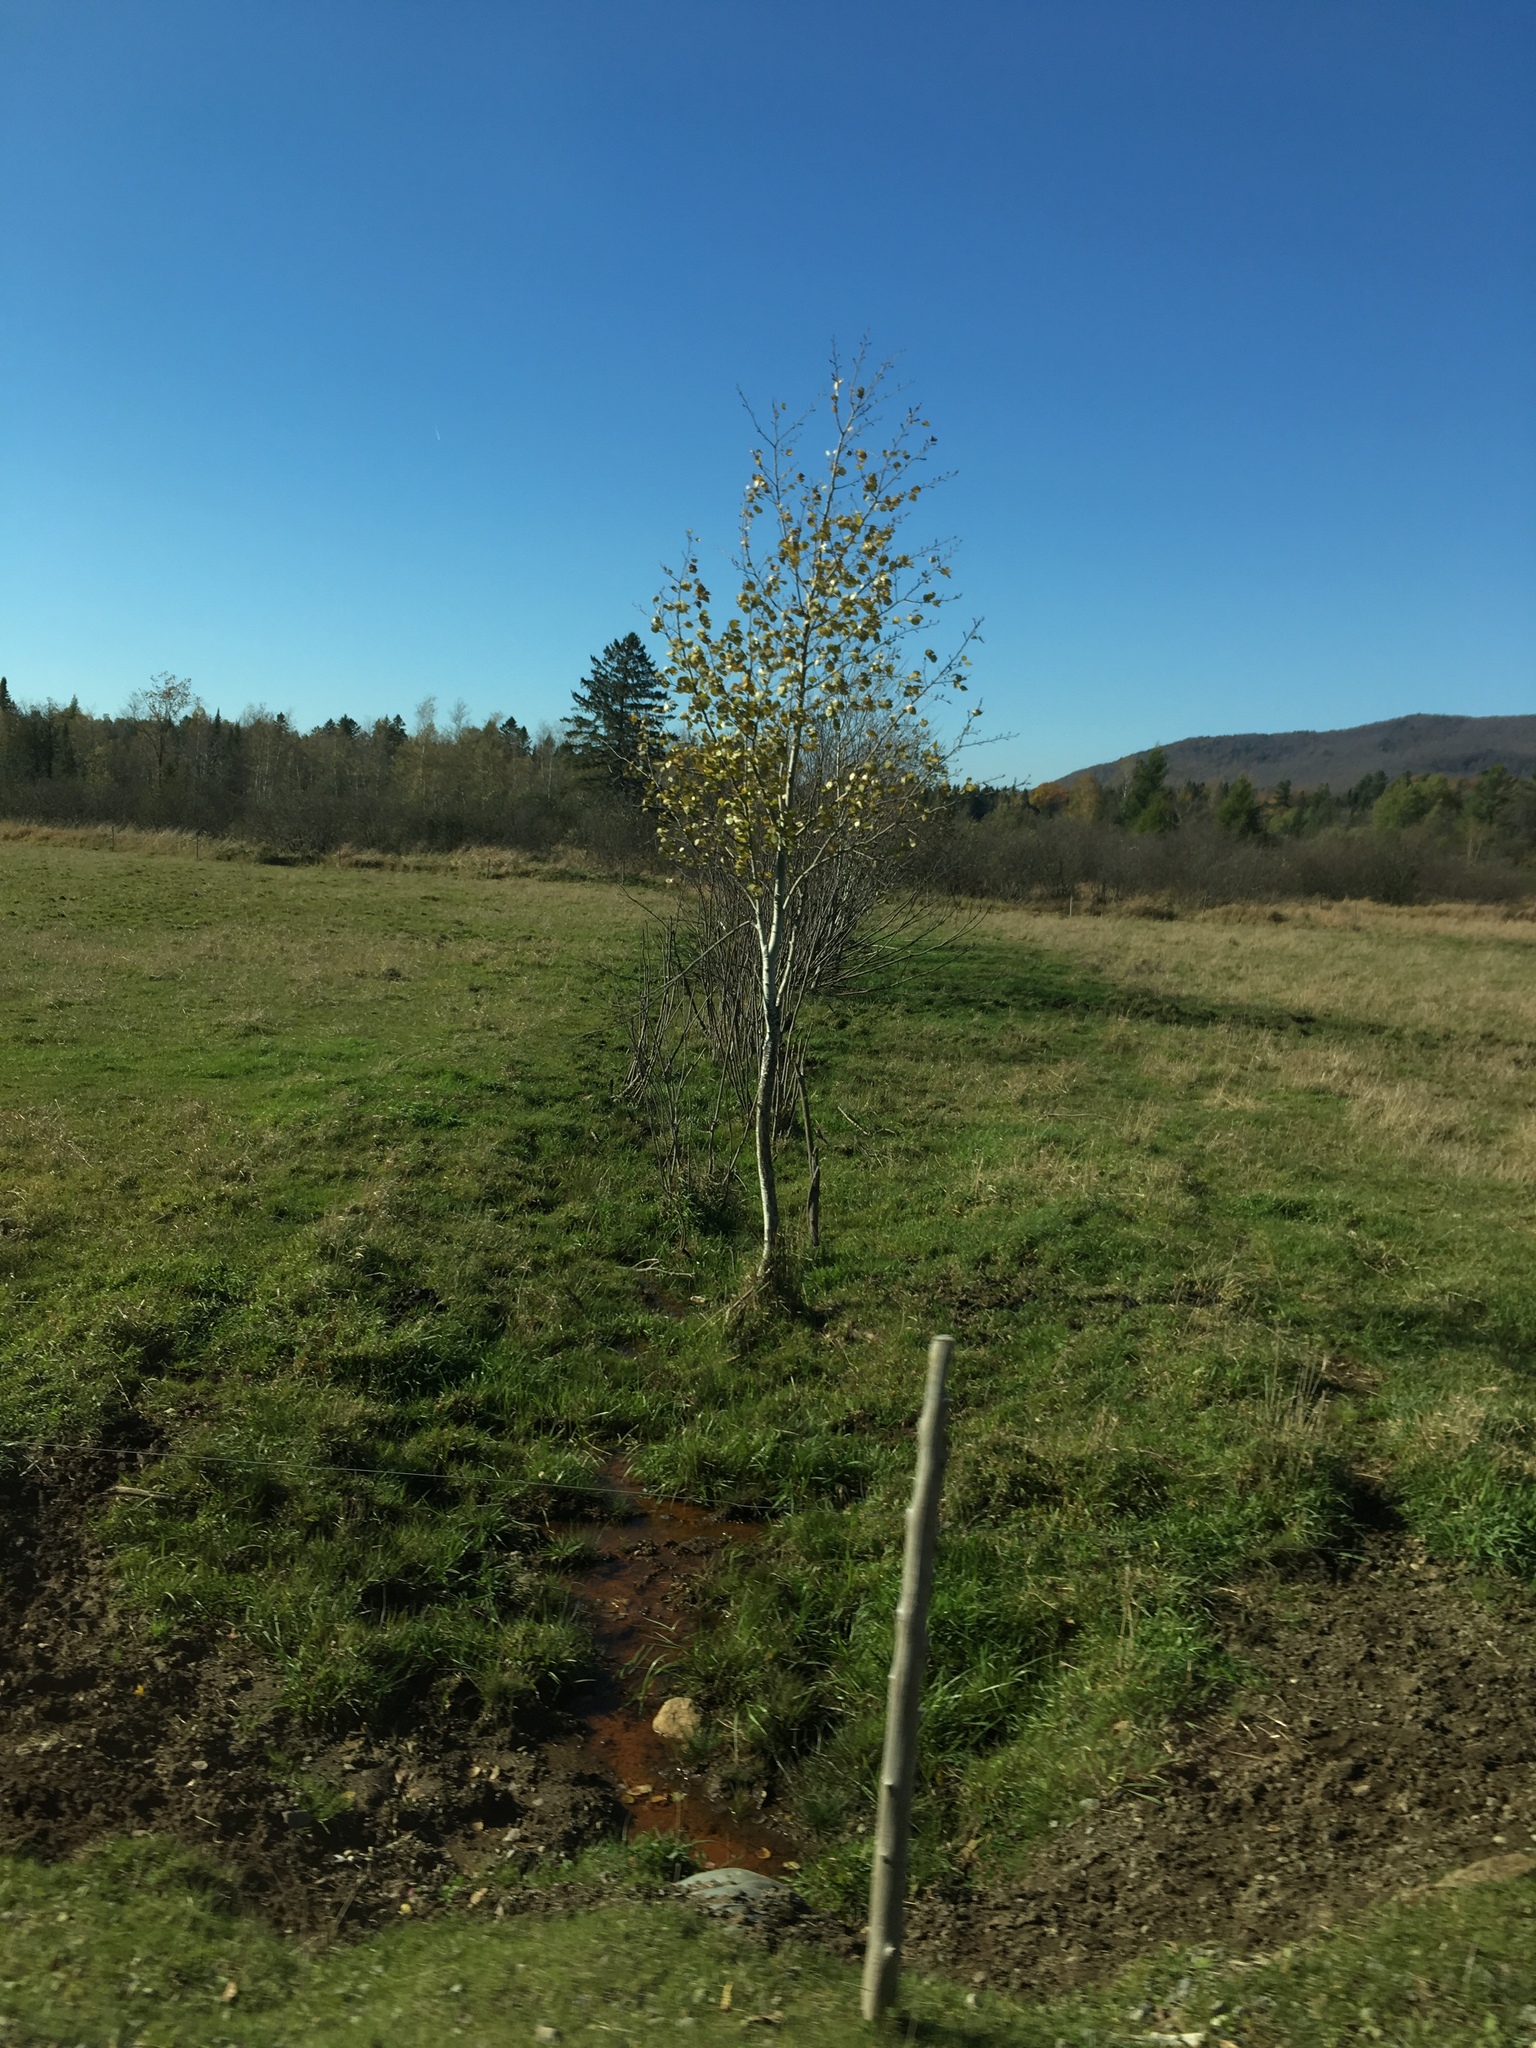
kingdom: Plantae
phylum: Tracheophyta
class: Magnoliopsida
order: Malpighiales
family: Salicaceae
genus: Populus
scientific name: Populus tremuloides
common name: Quaking aspen
